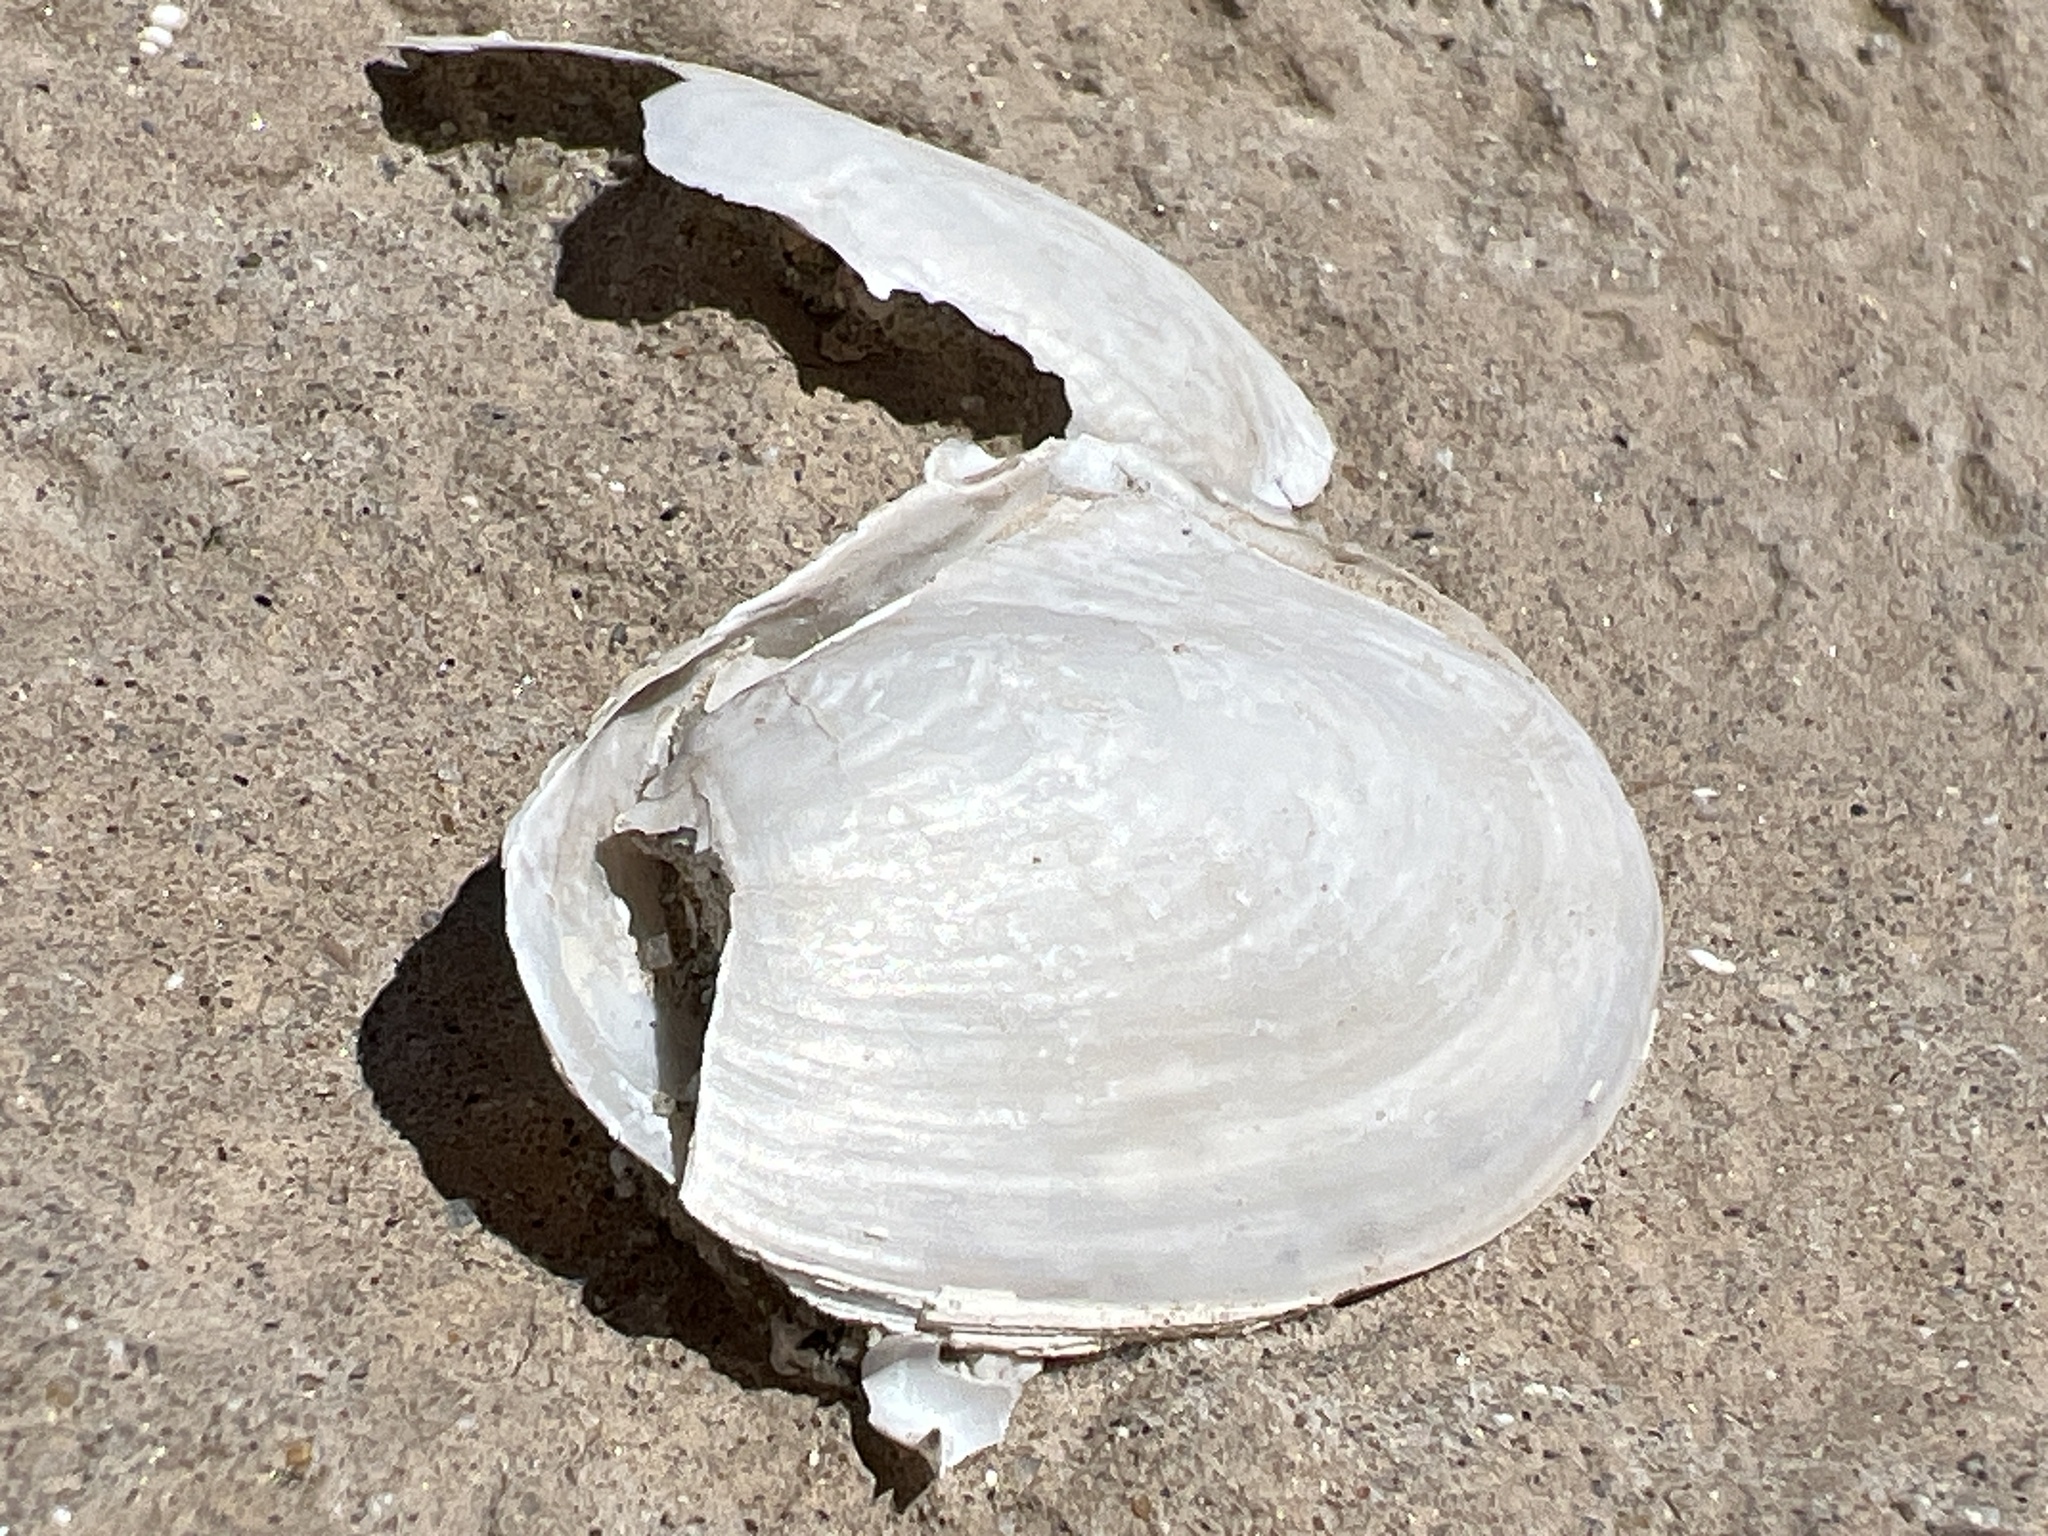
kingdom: Animalia
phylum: Mollusca
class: Bivalvia
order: Unionida
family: Unionidae
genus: Anodonta
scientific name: Anodonta californiensis
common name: California floater
